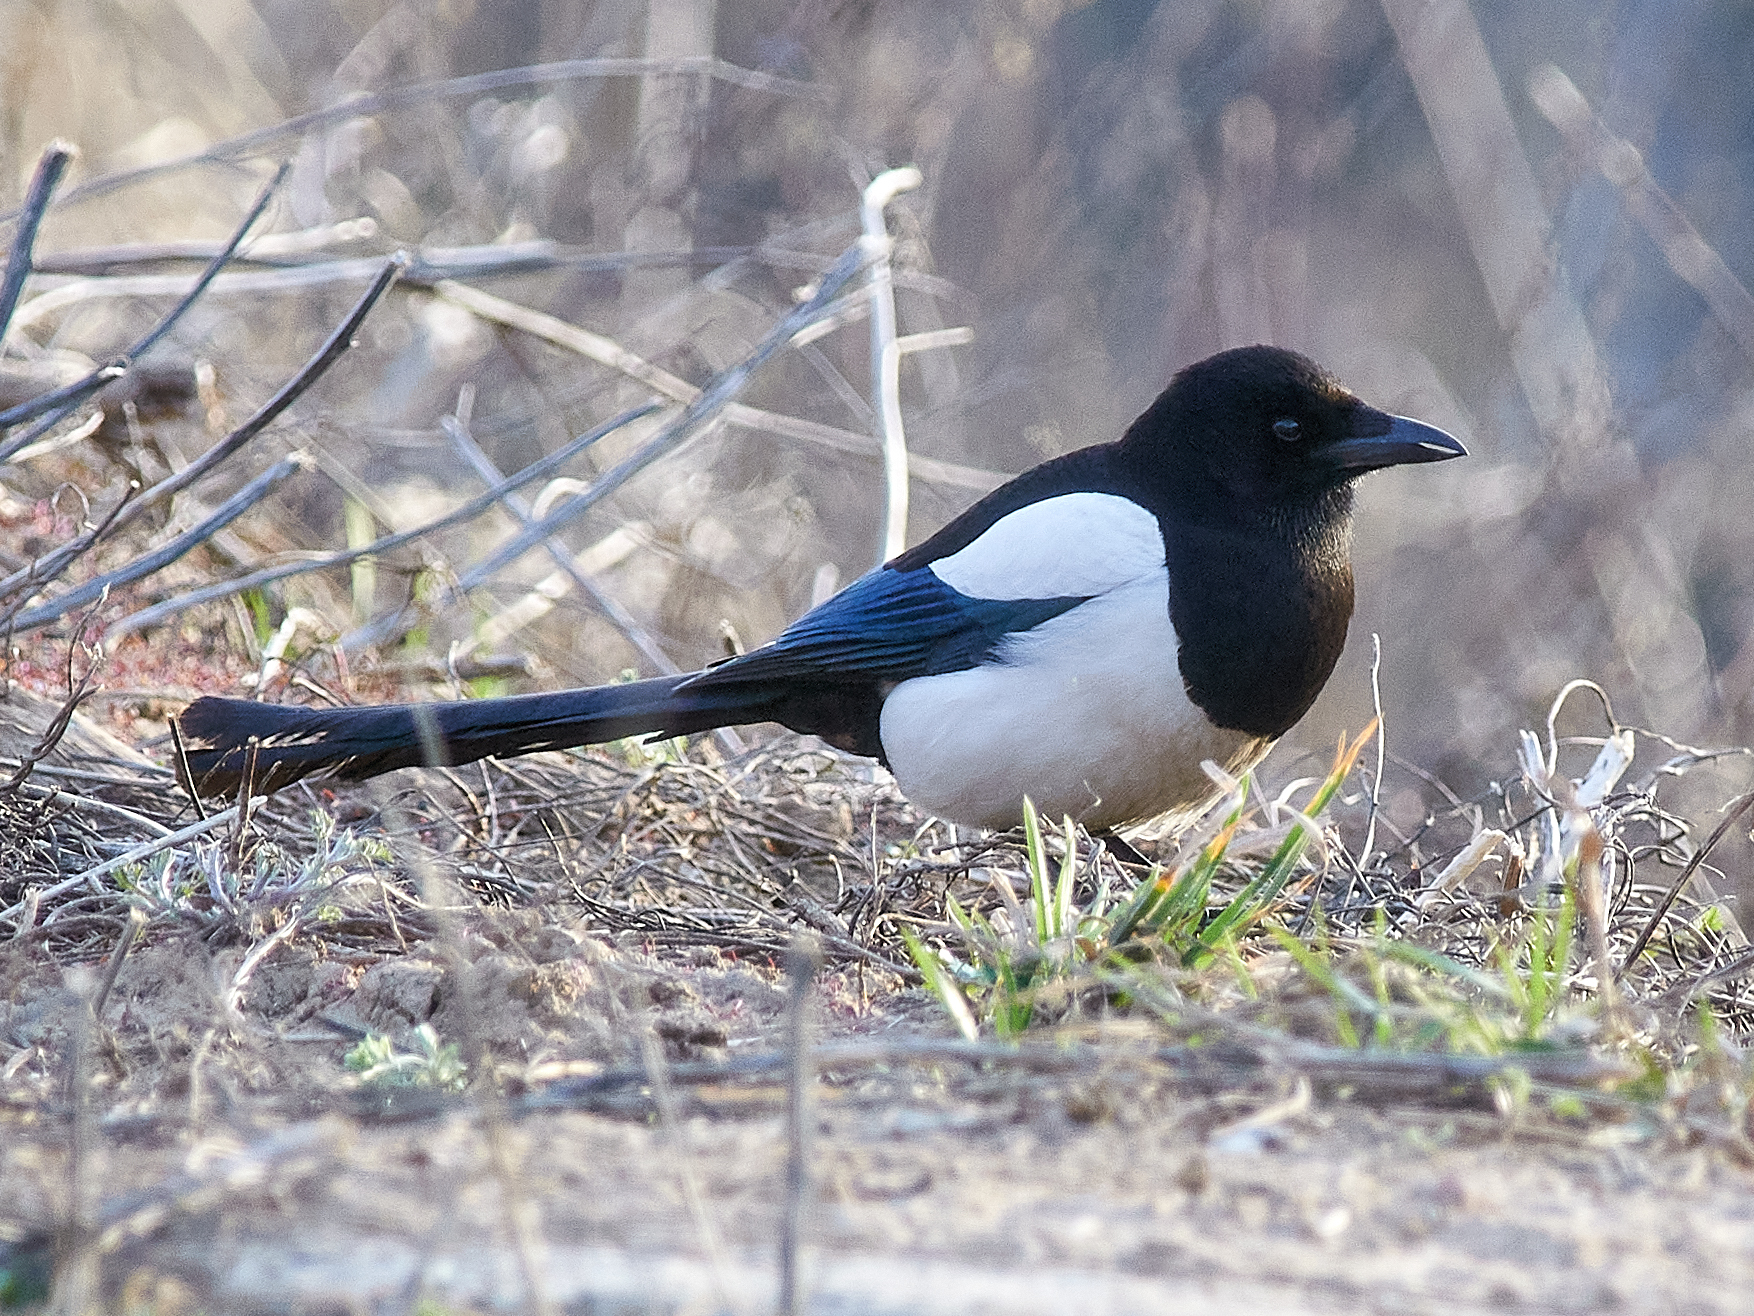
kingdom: Animalia
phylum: Chordata
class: Aves
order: Passeriformes
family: Corvidae
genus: Pica
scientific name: Pica pica
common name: Eurasian magpie
